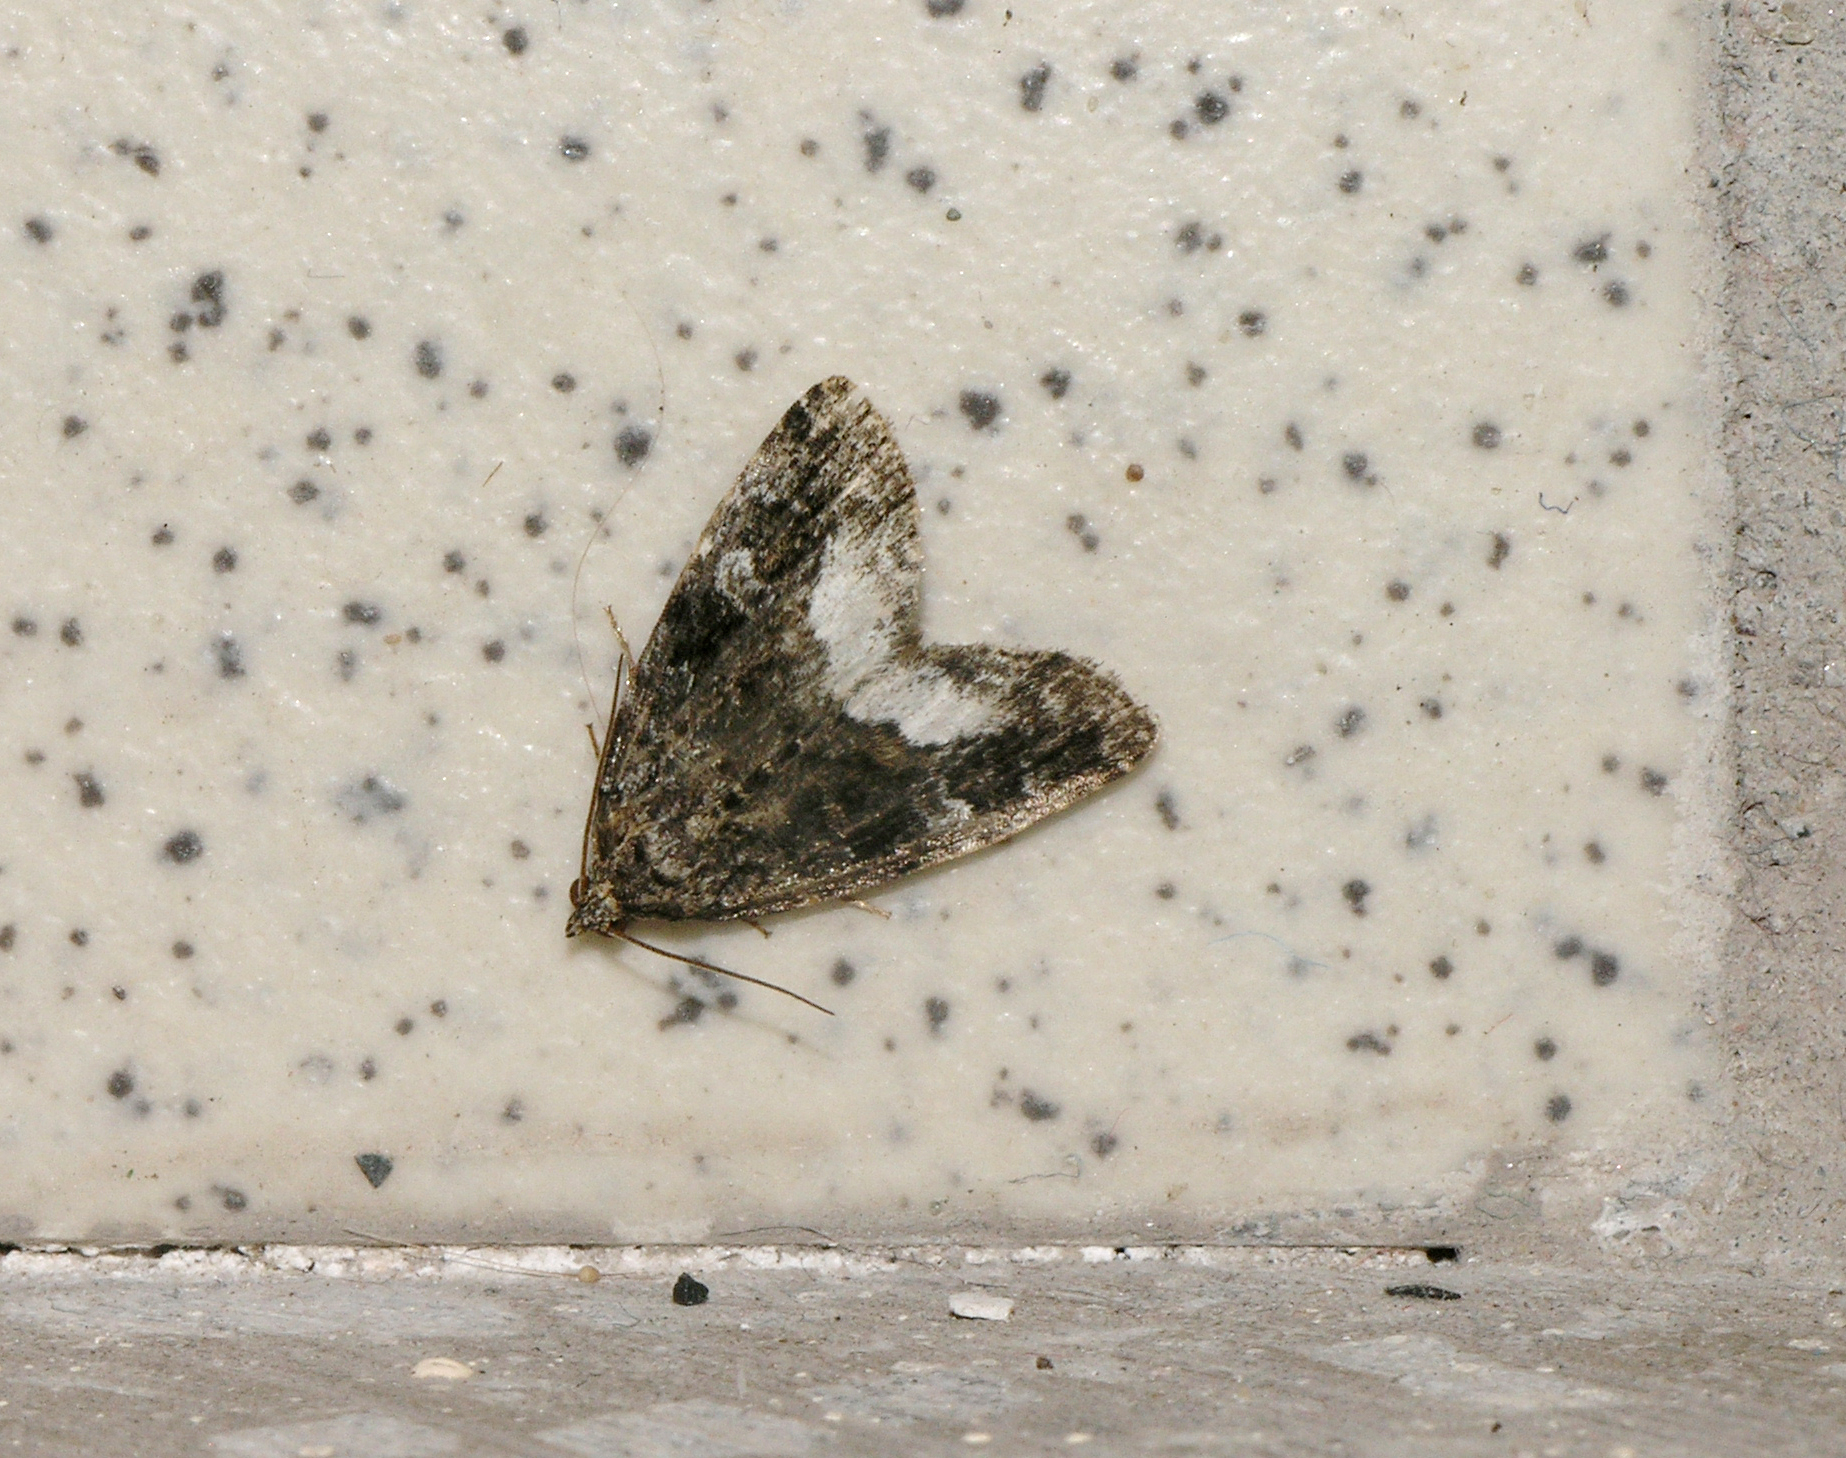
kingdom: Animalia
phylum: Arthropoda
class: Insecta
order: Lepidoptera
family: Noctuidae
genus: Deltote
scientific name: Deltote pygarga
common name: Marbled white spot
